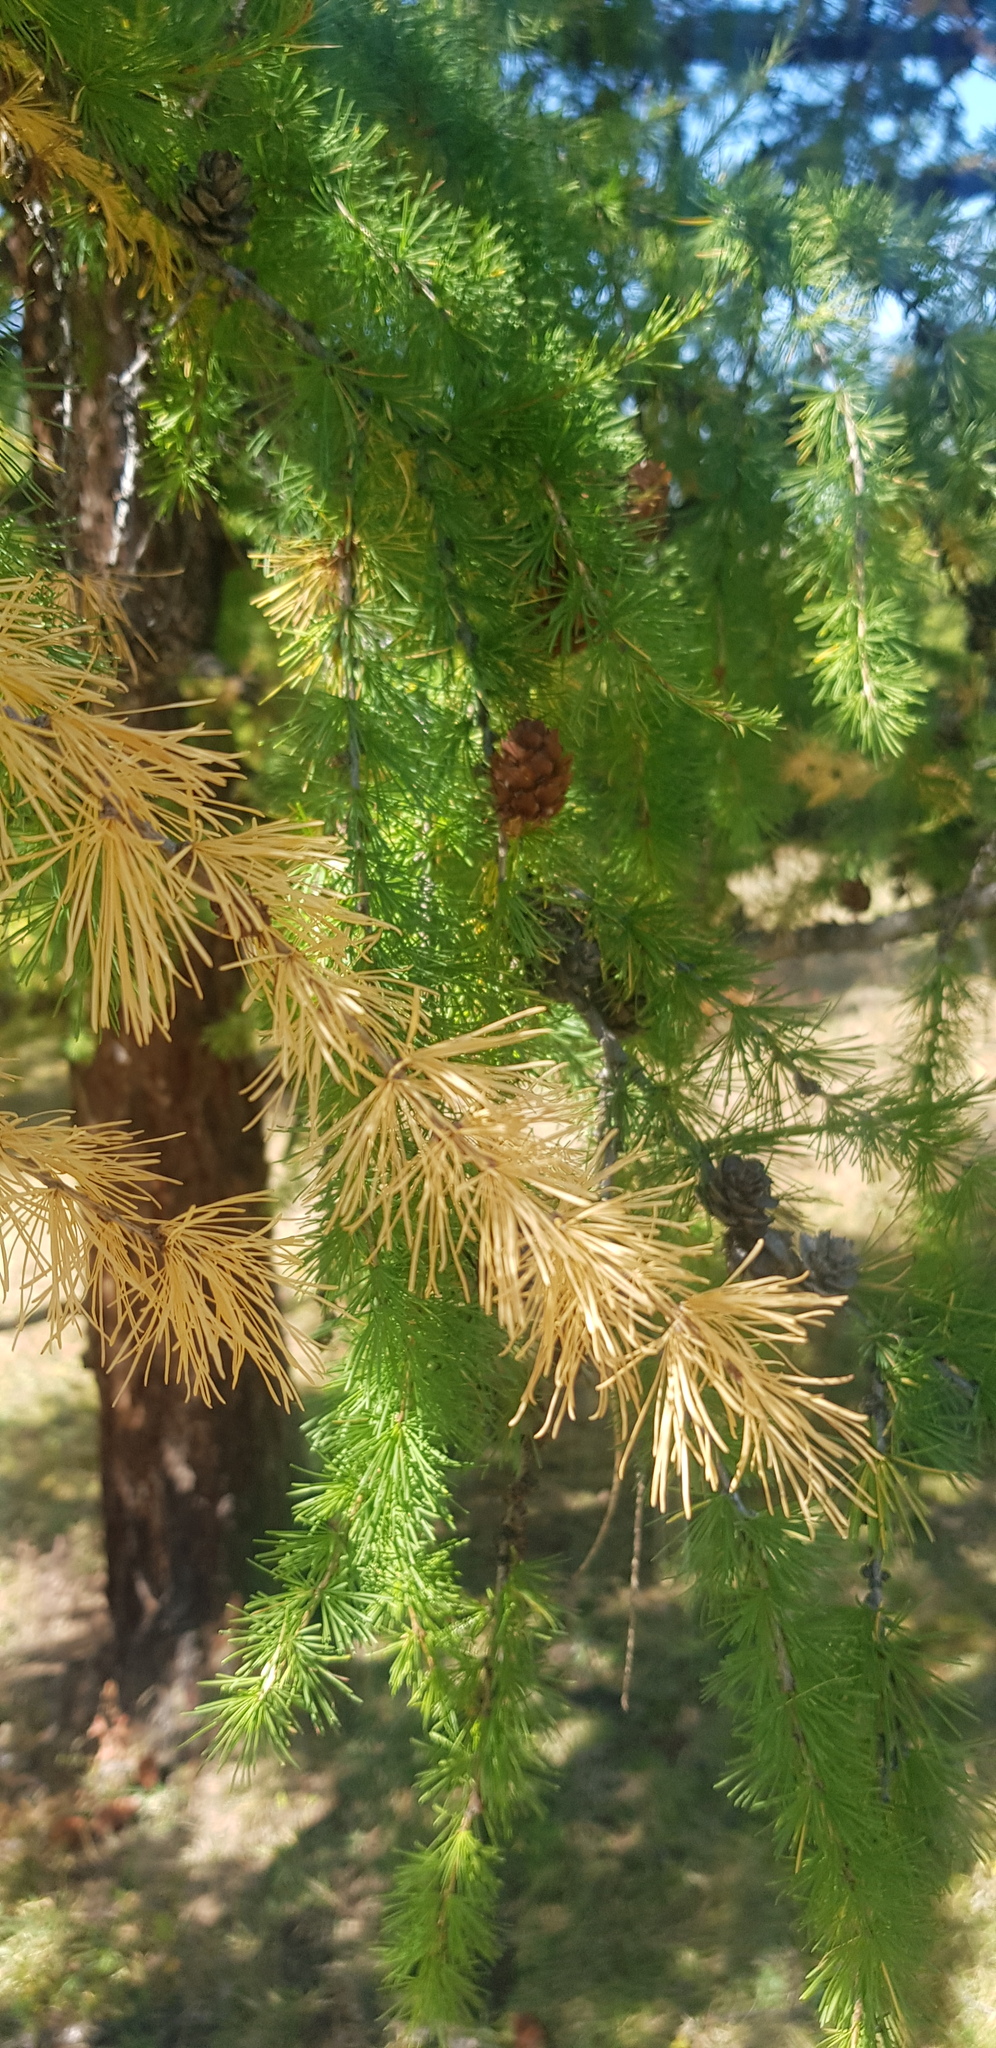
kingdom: Plantae
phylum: Tracheophyta
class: Pinopsida
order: Pinales
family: Pinaceae
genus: Larix
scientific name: Larix sibirica
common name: Siberian larch
